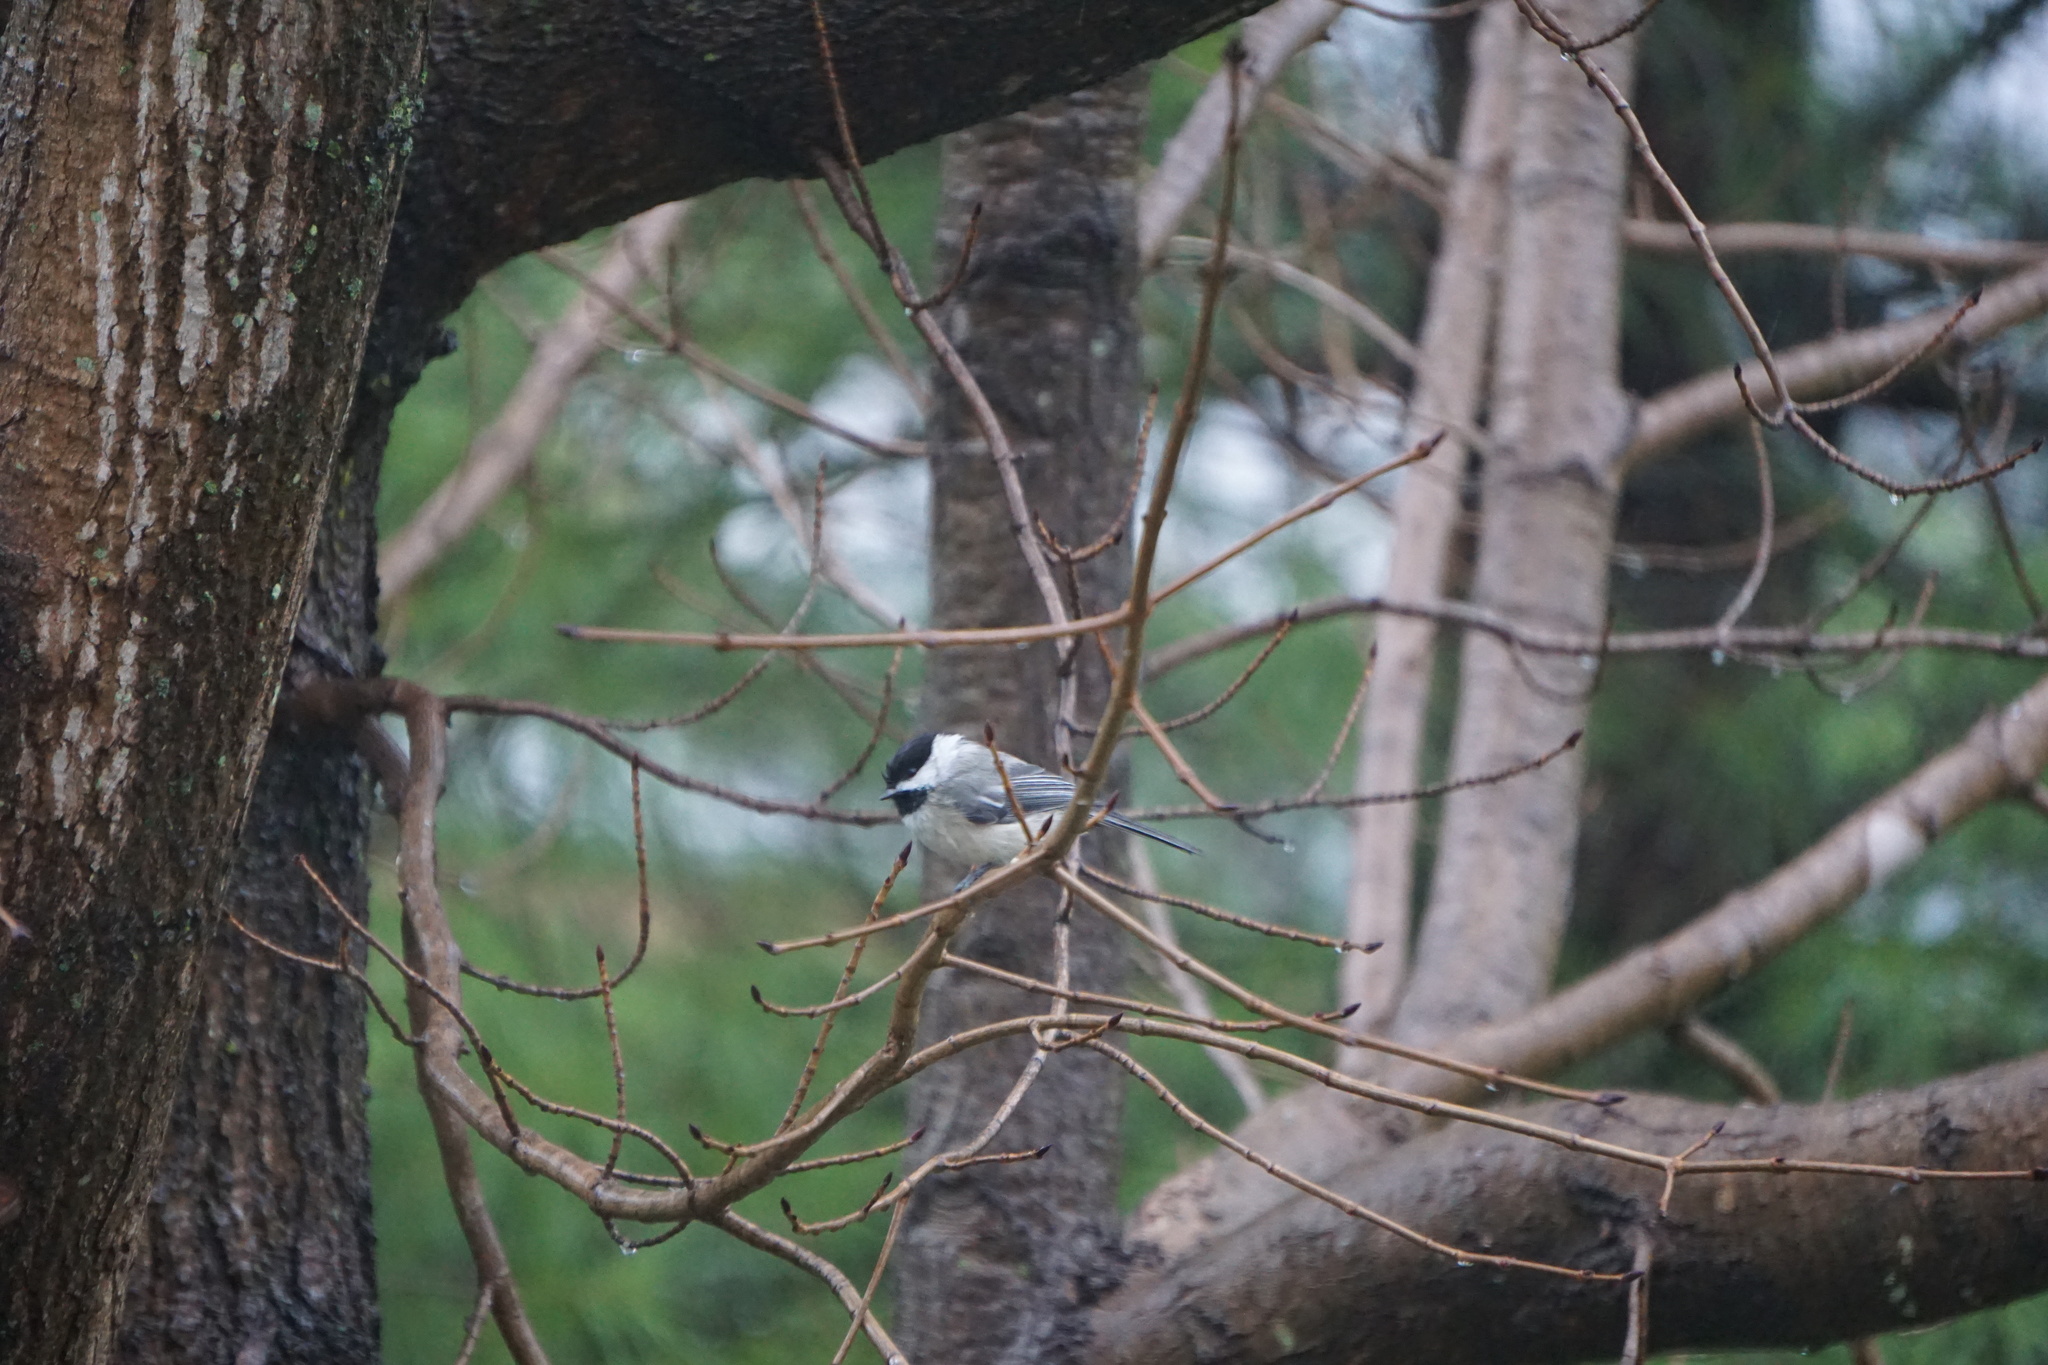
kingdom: Animalia
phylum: Chordata
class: Aves
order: Passeriformes
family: Paridae
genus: Poecile
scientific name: Poecile atricapillus
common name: Black-capped chickadee
